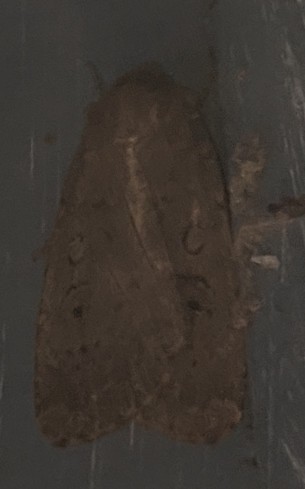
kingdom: Animalia
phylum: Arthropoda
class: Insecta
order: Lepidoptera
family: Noctuidae
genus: Graphiphora
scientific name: Graphiphora augur
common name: Double dart
